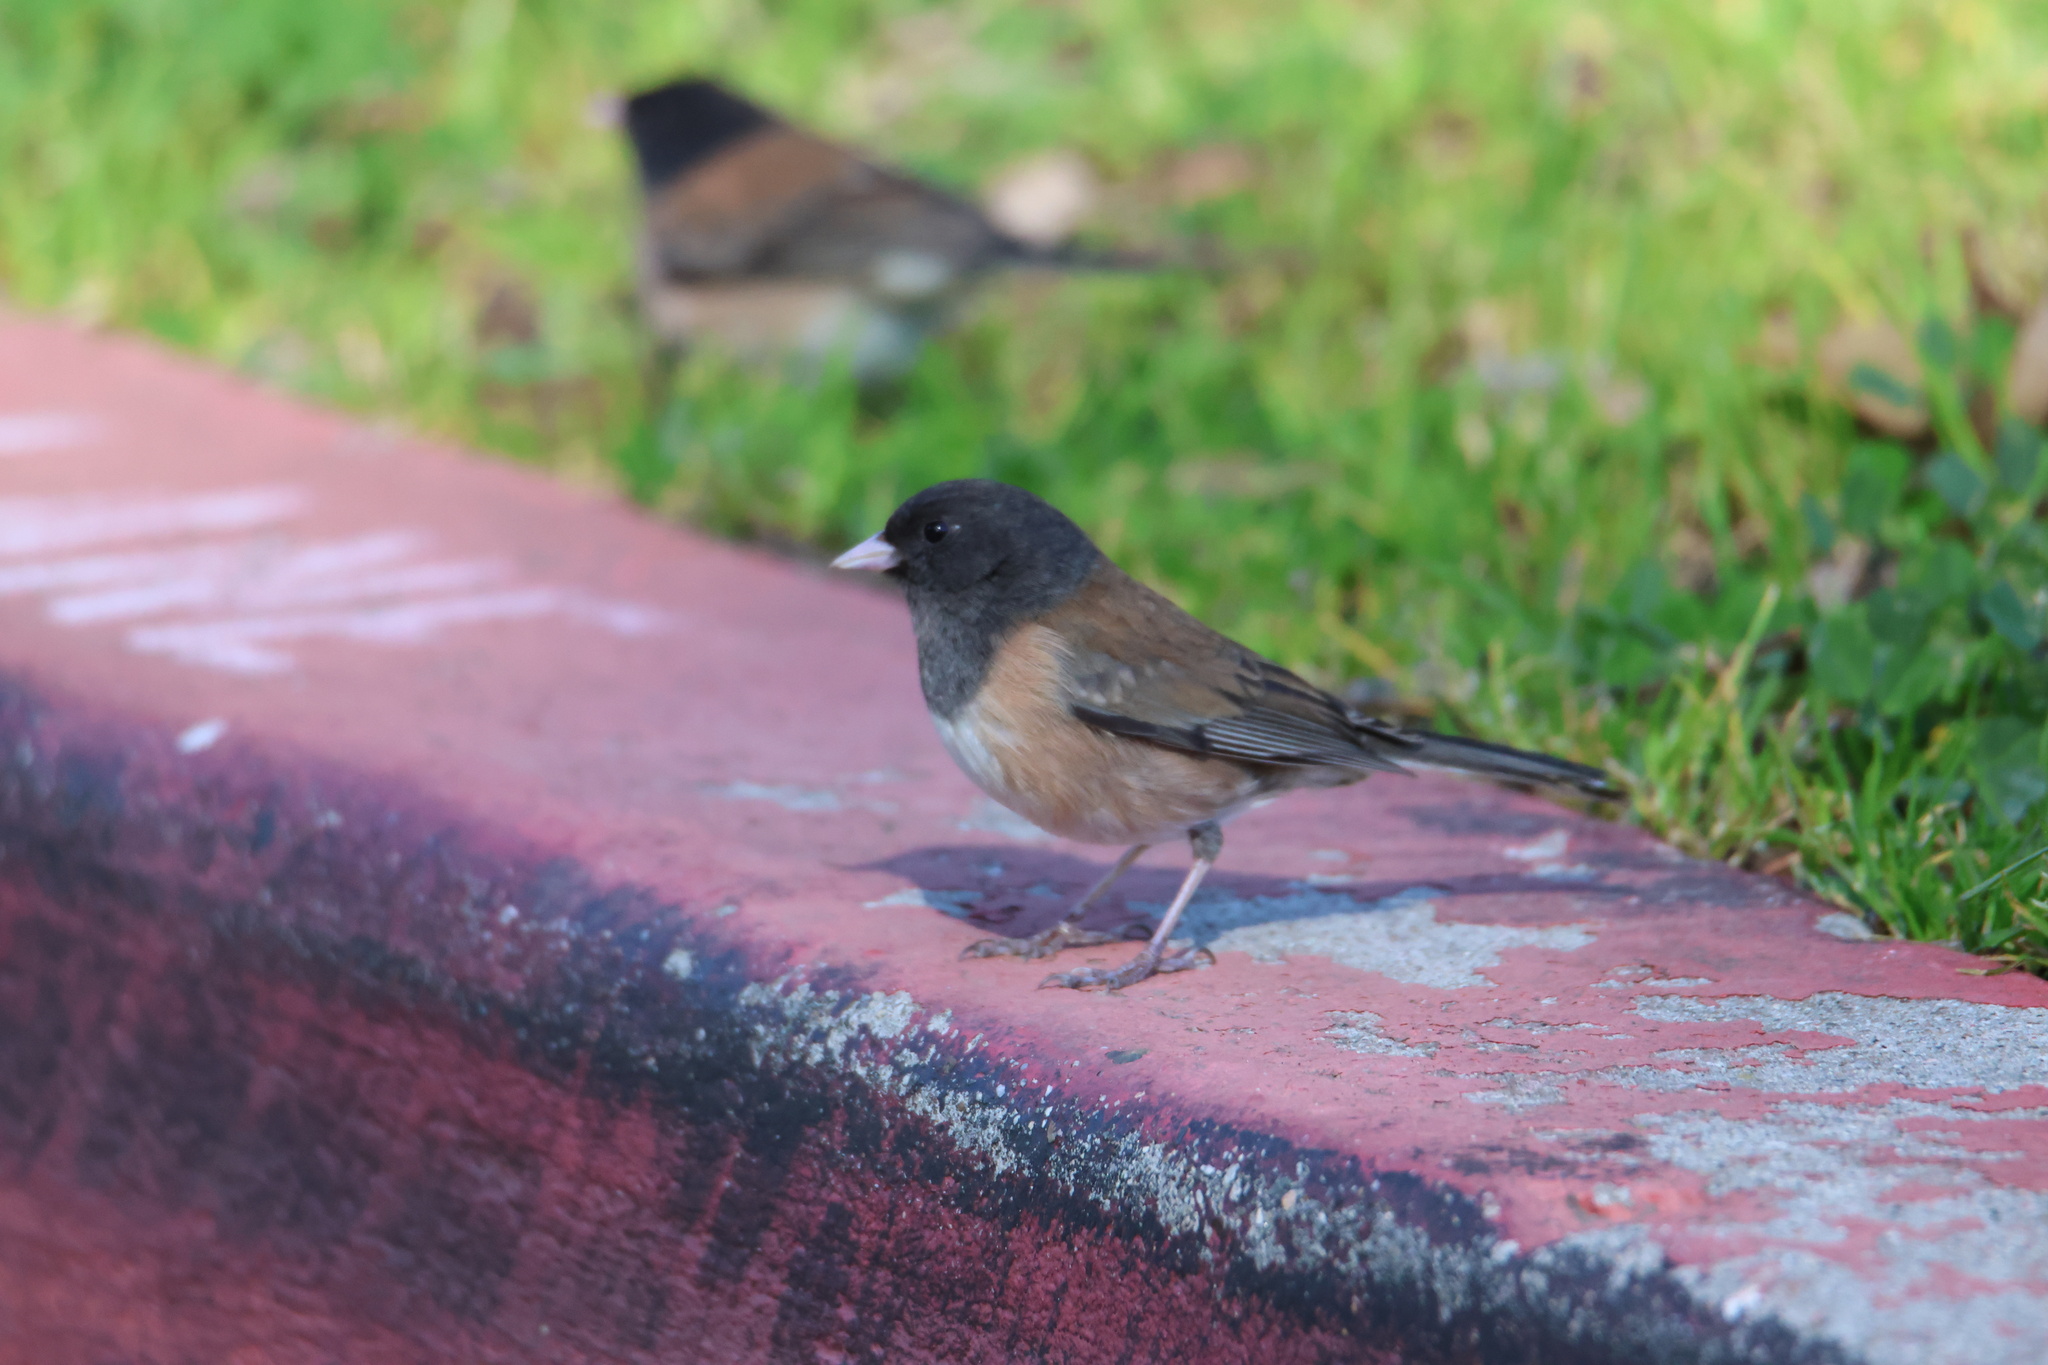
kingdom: Animalia
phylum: Chordata
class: Aves
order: Passeriformes
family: Passerellidae
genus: Junco
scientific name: Junco hyemalis
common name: Dark-eyed junco
